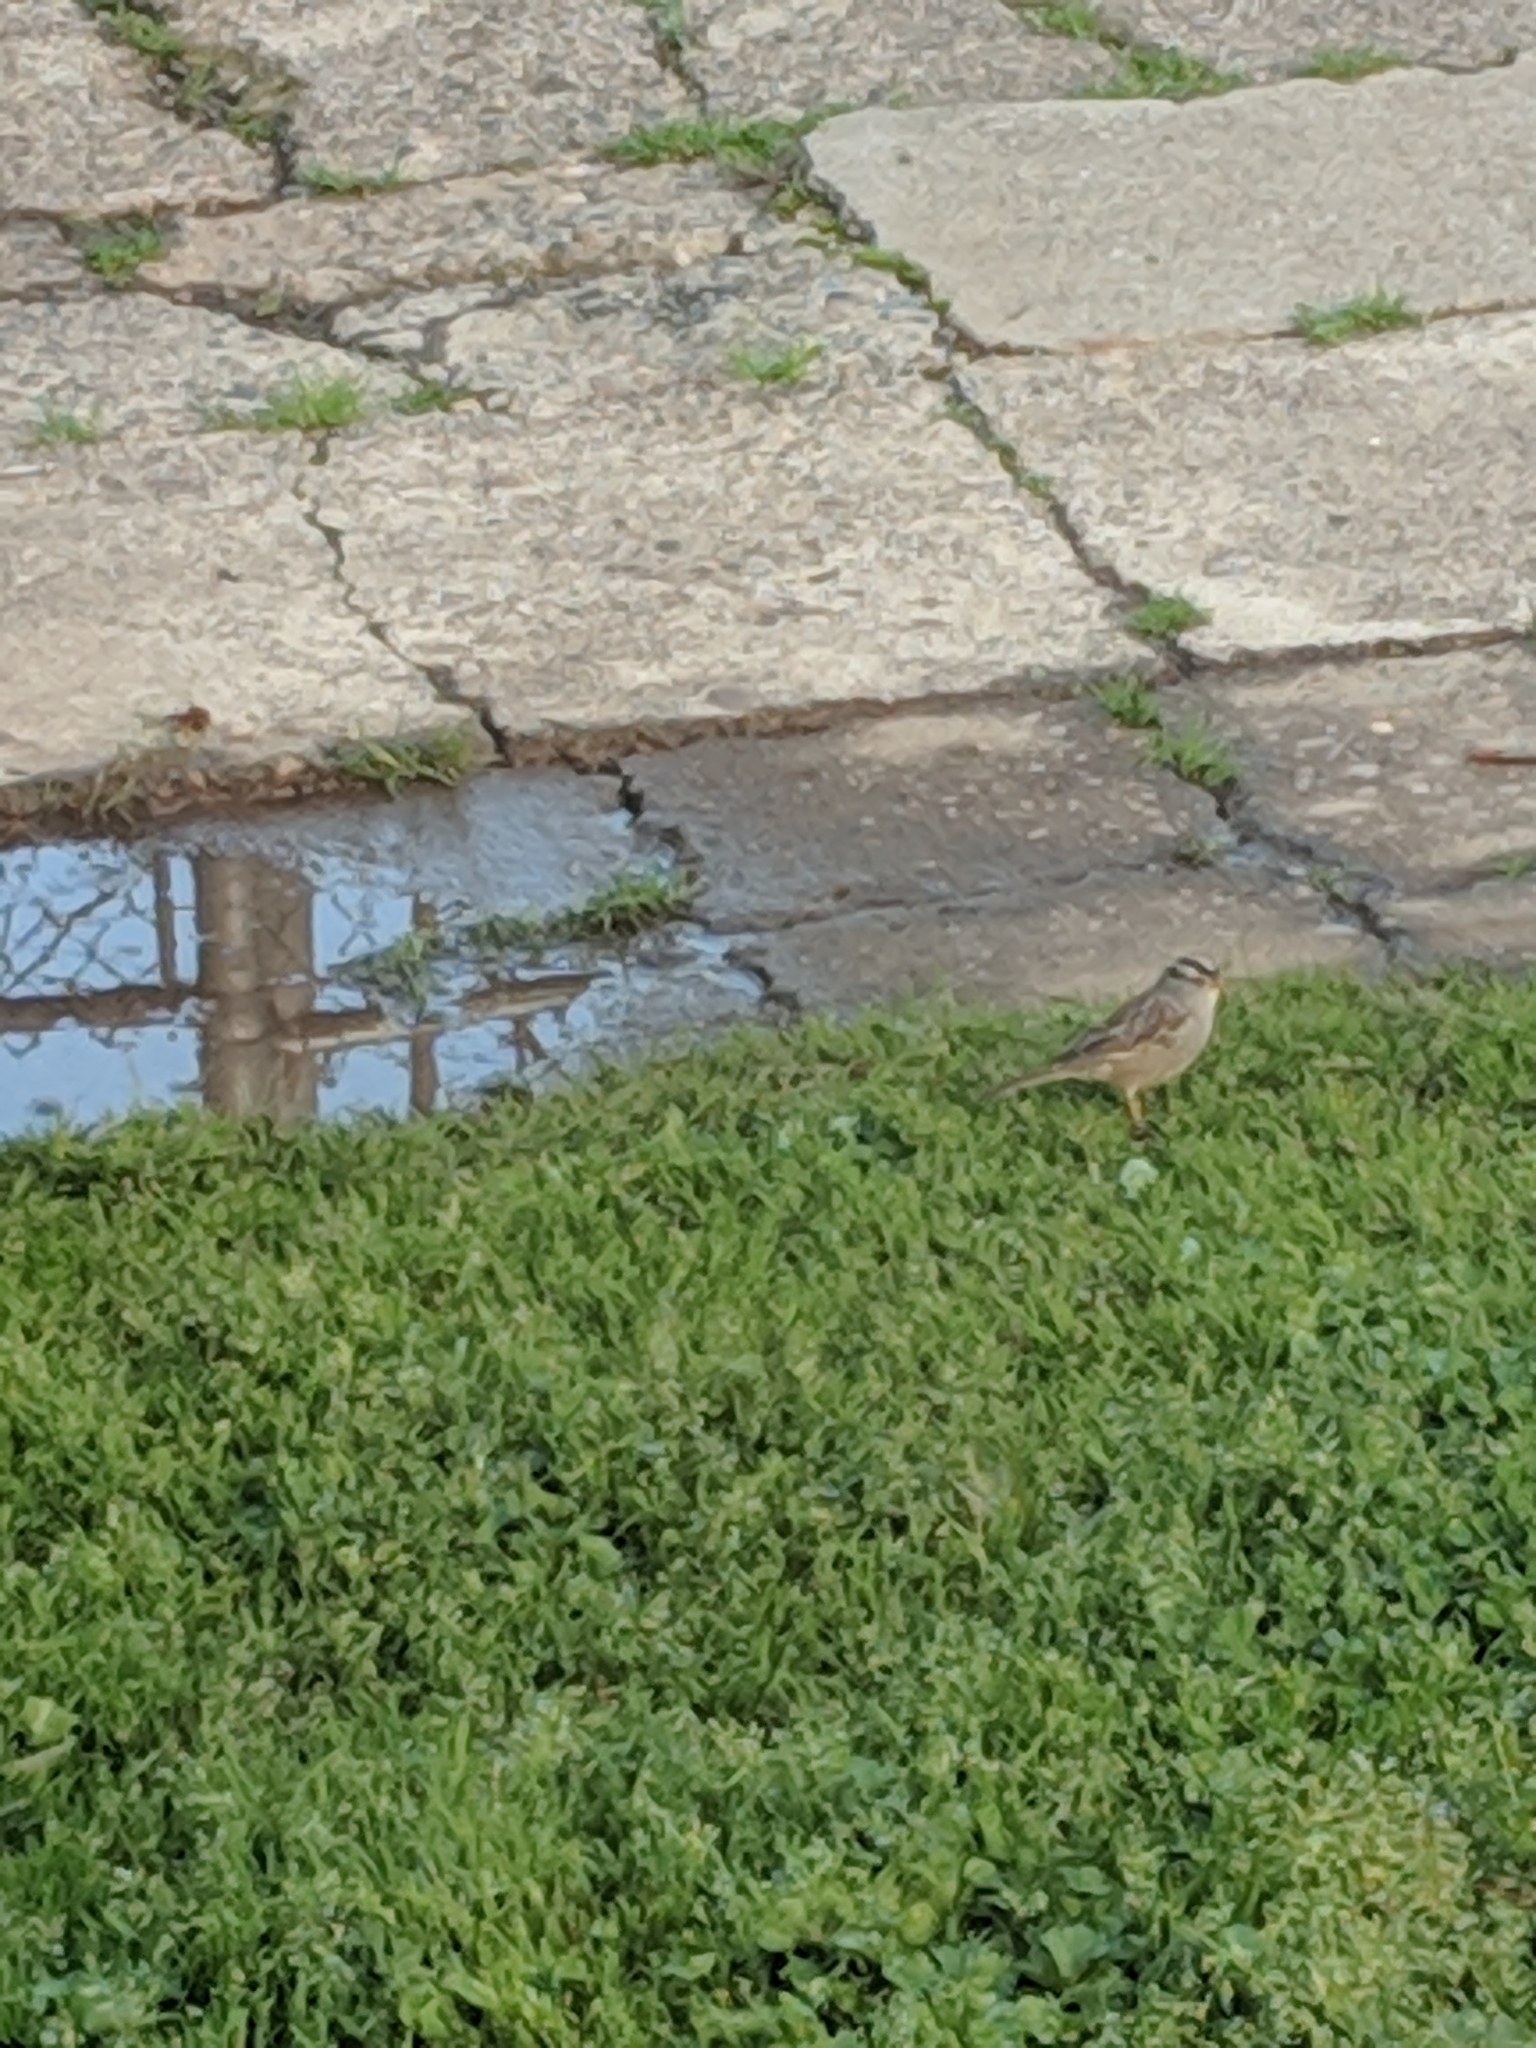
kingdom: Animalia
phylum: Chordata
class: Aves
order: Passeriformes
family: Passerellidae
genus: Zonotrichia
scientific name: Zonotrichia leucophrys
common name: White-crowned sparrow
